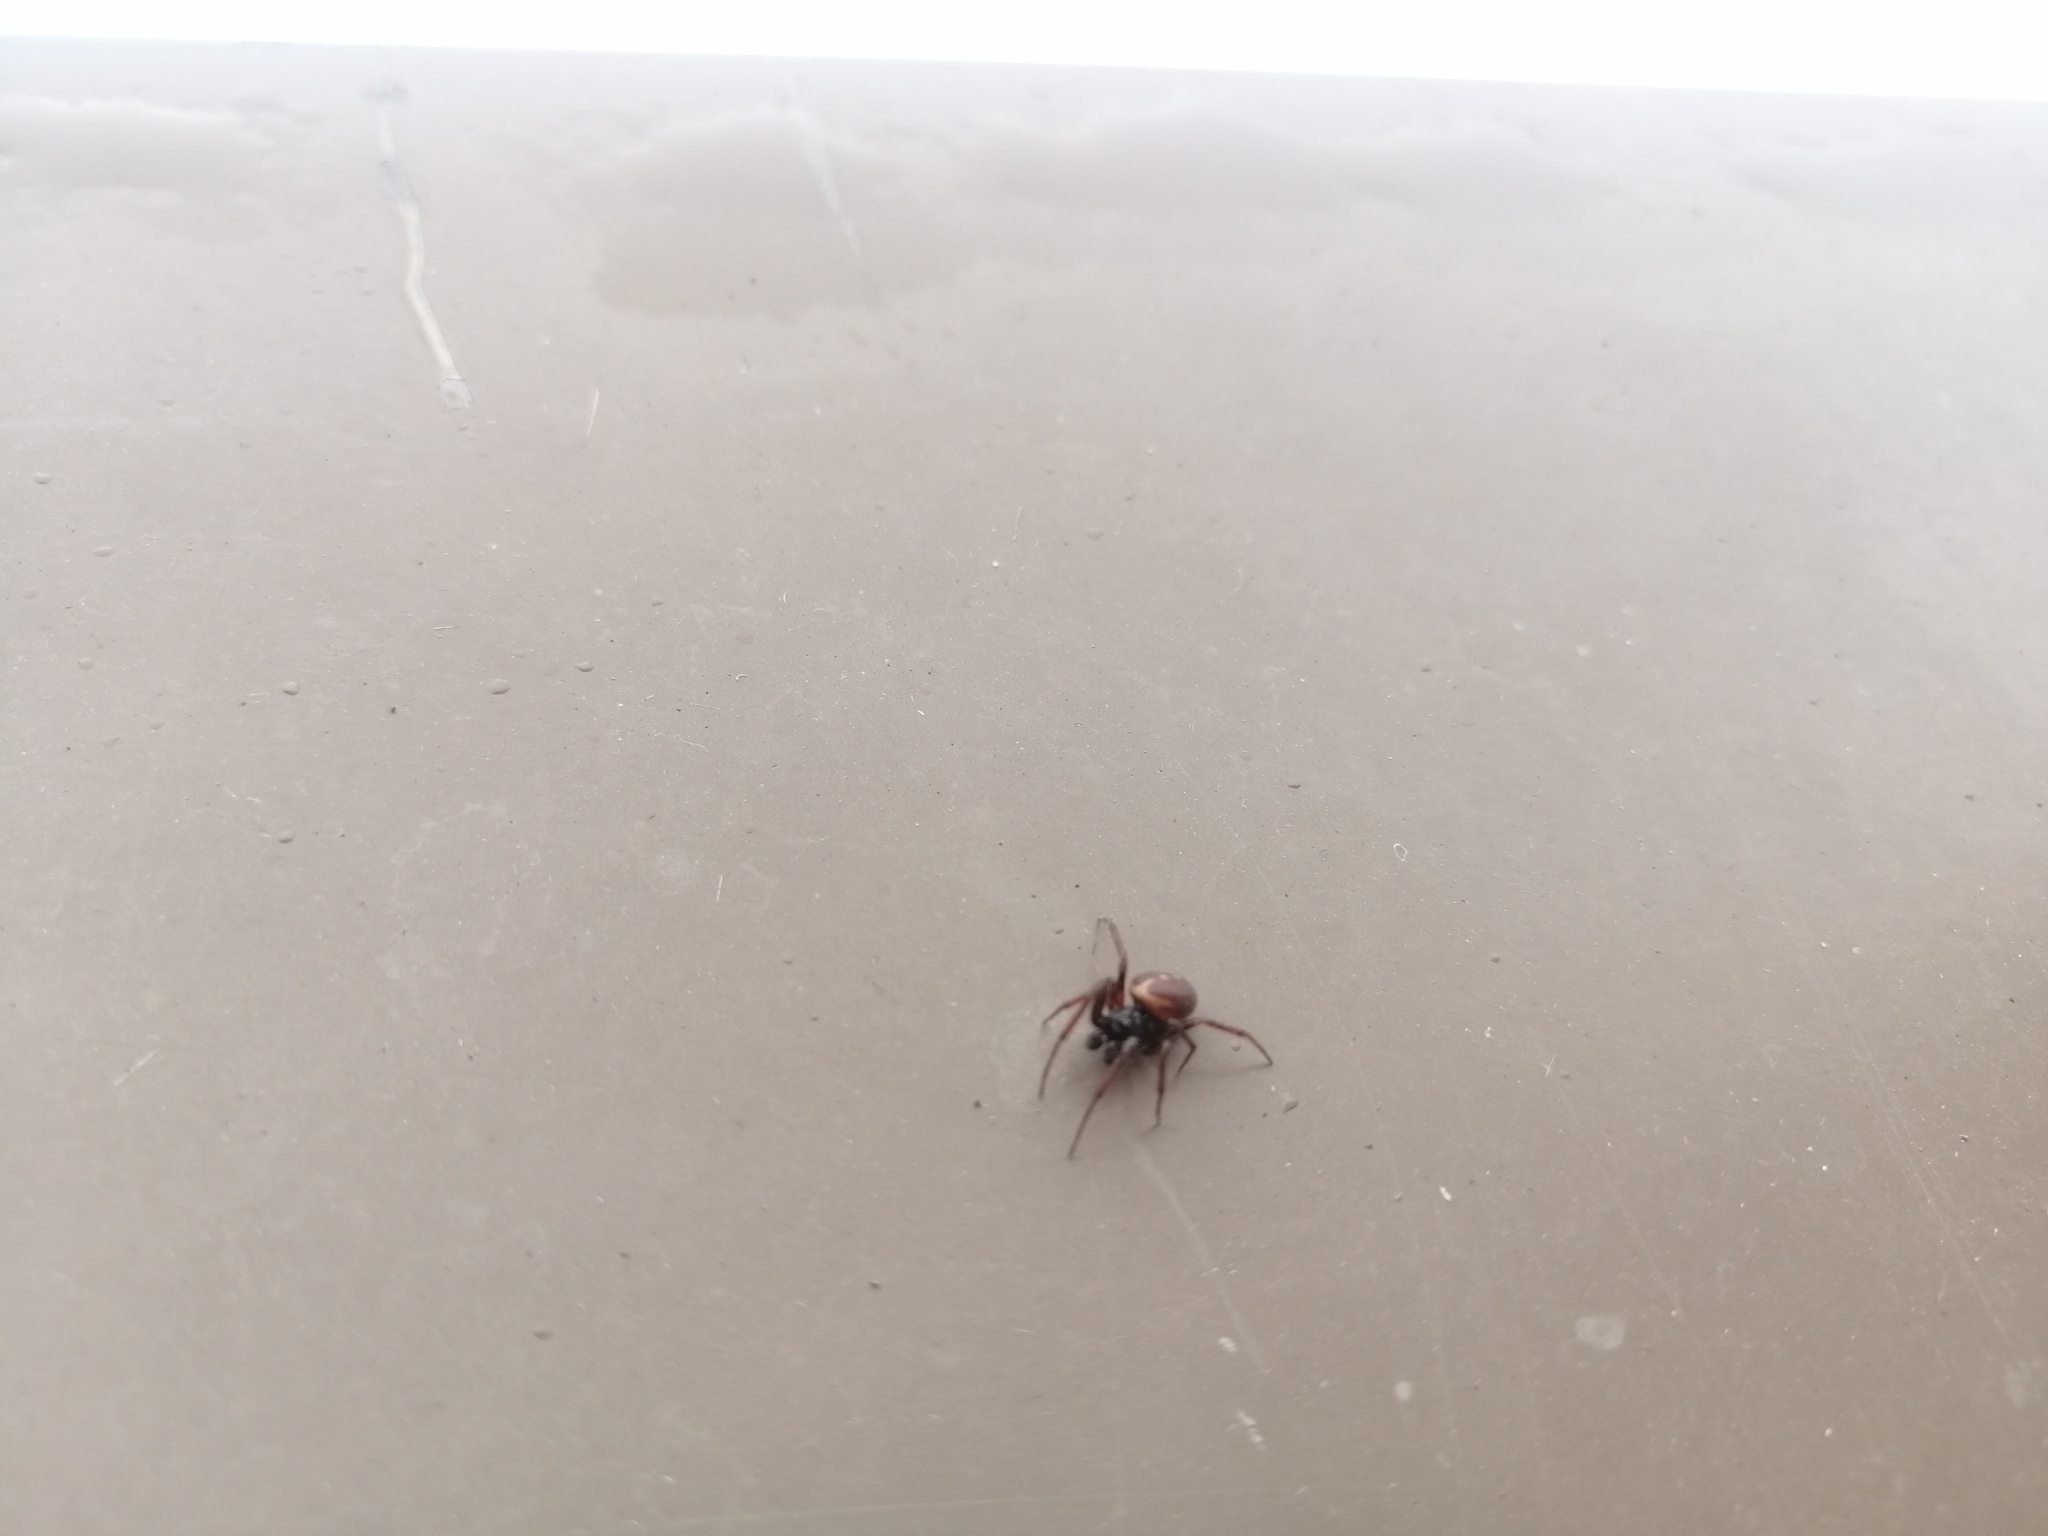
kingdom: Animalia
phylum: Arthropoda
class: Arachnida
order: Araneae
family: Theridiidae
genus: Steatoda
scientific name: Steatoda bipunctata
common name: False widow
